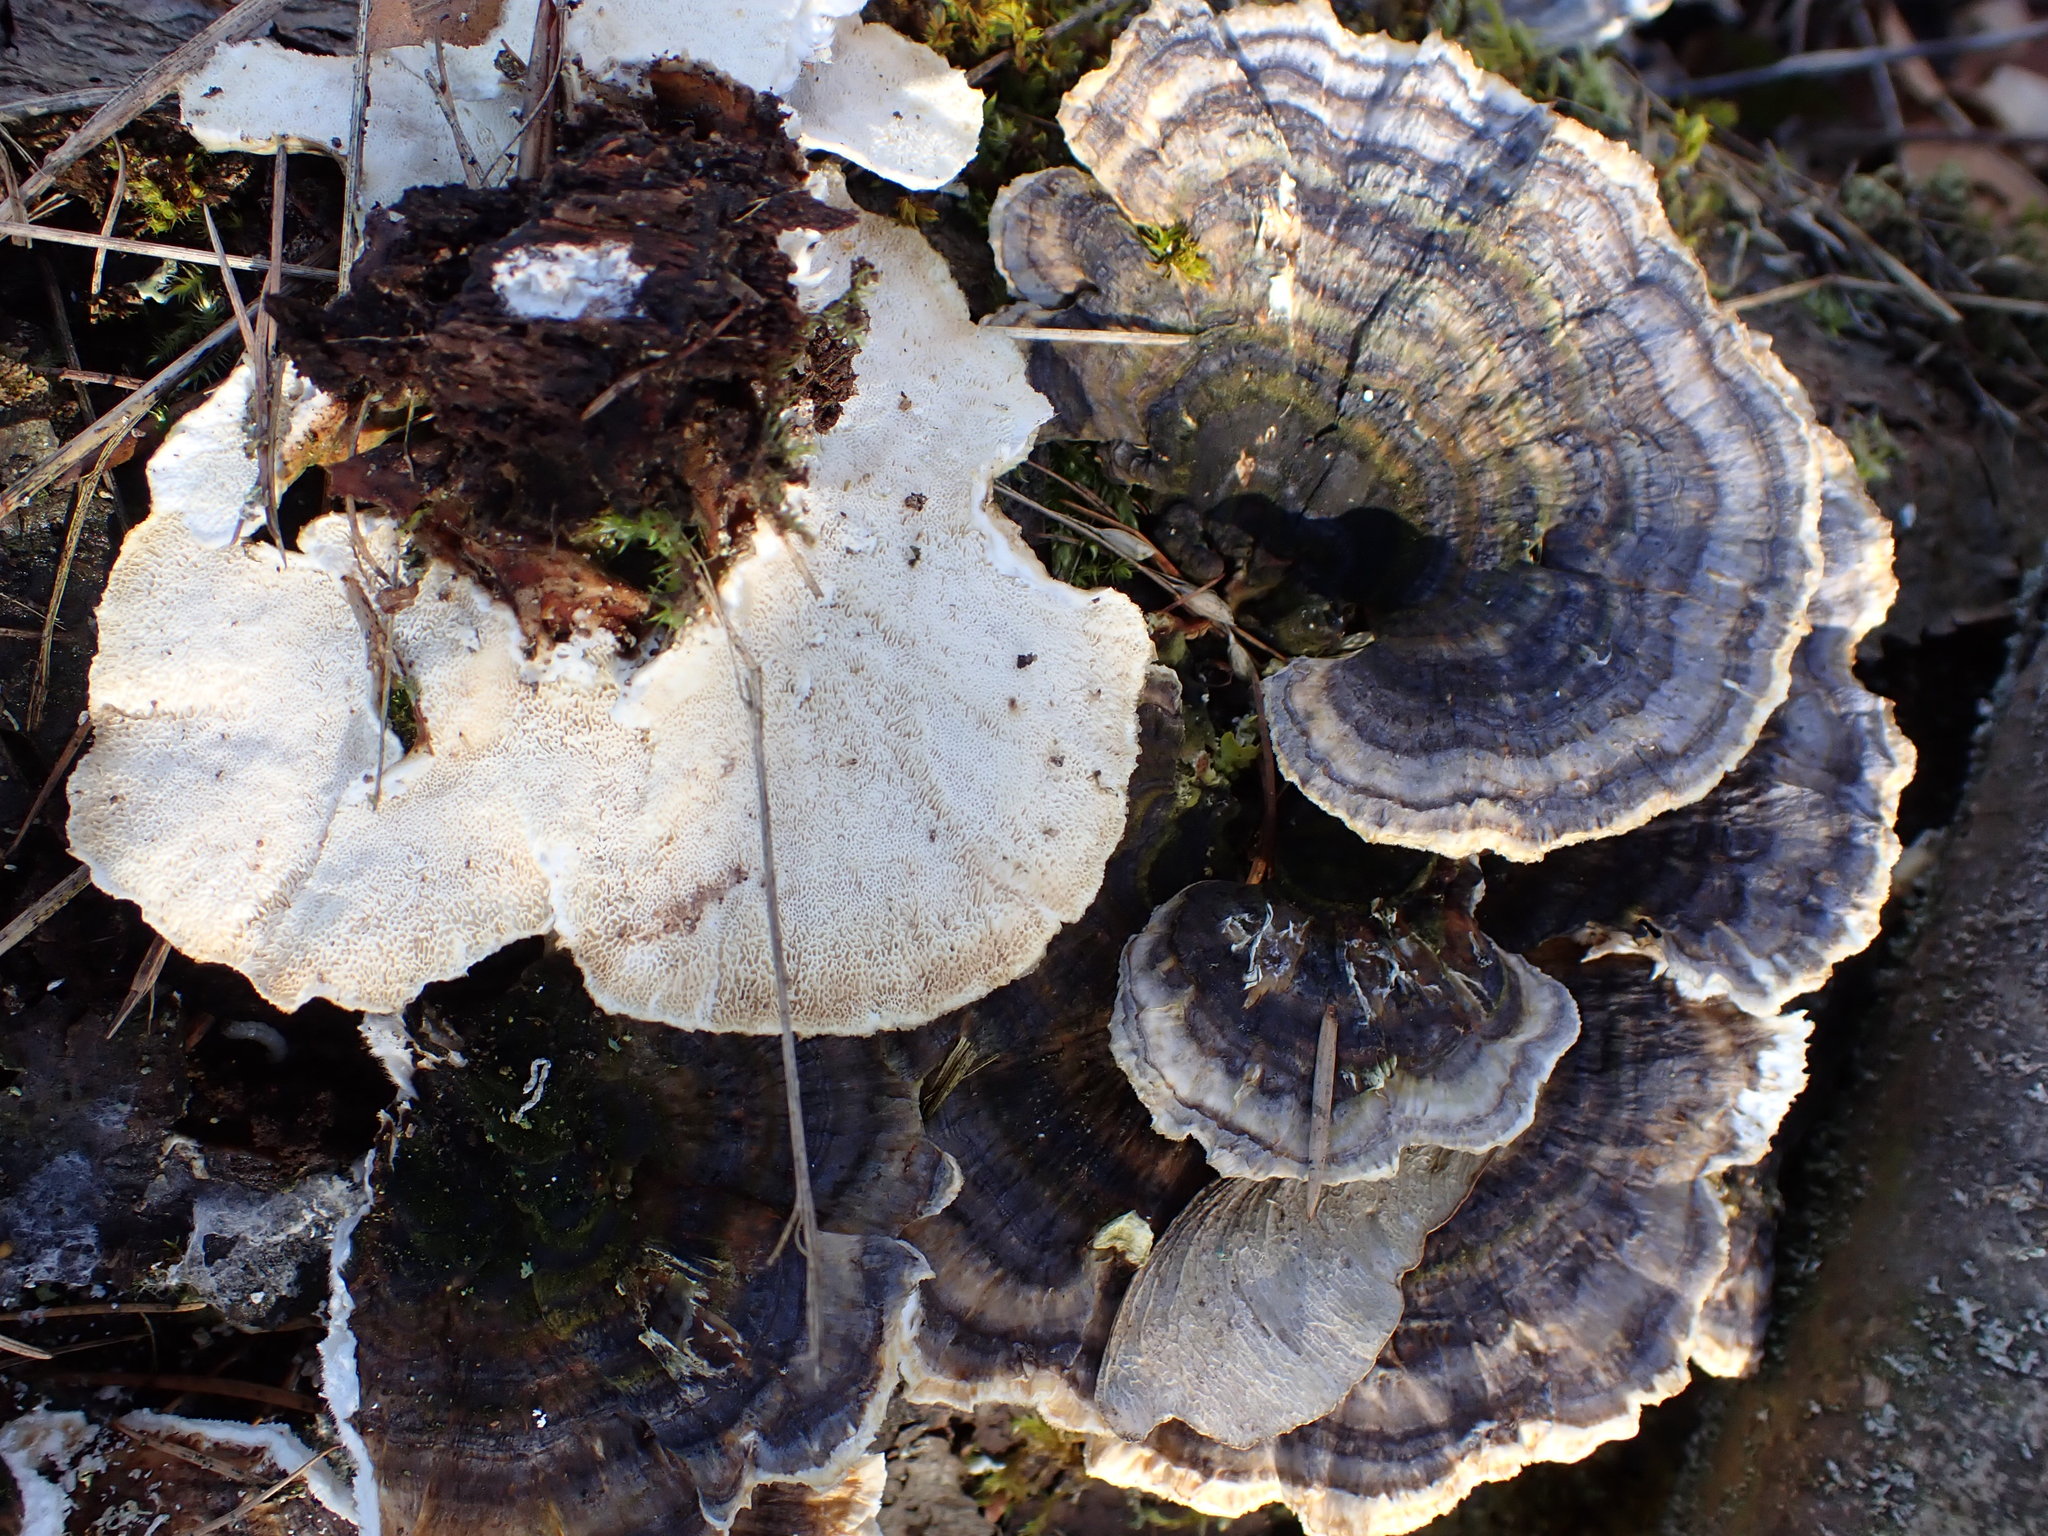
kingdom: Fungi
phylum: Basidiomycota
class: Agaricomycetes
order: Polyporales
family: Polyporaceae
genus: Trametes
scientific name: Trametes versicolor
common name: Turkeytail
